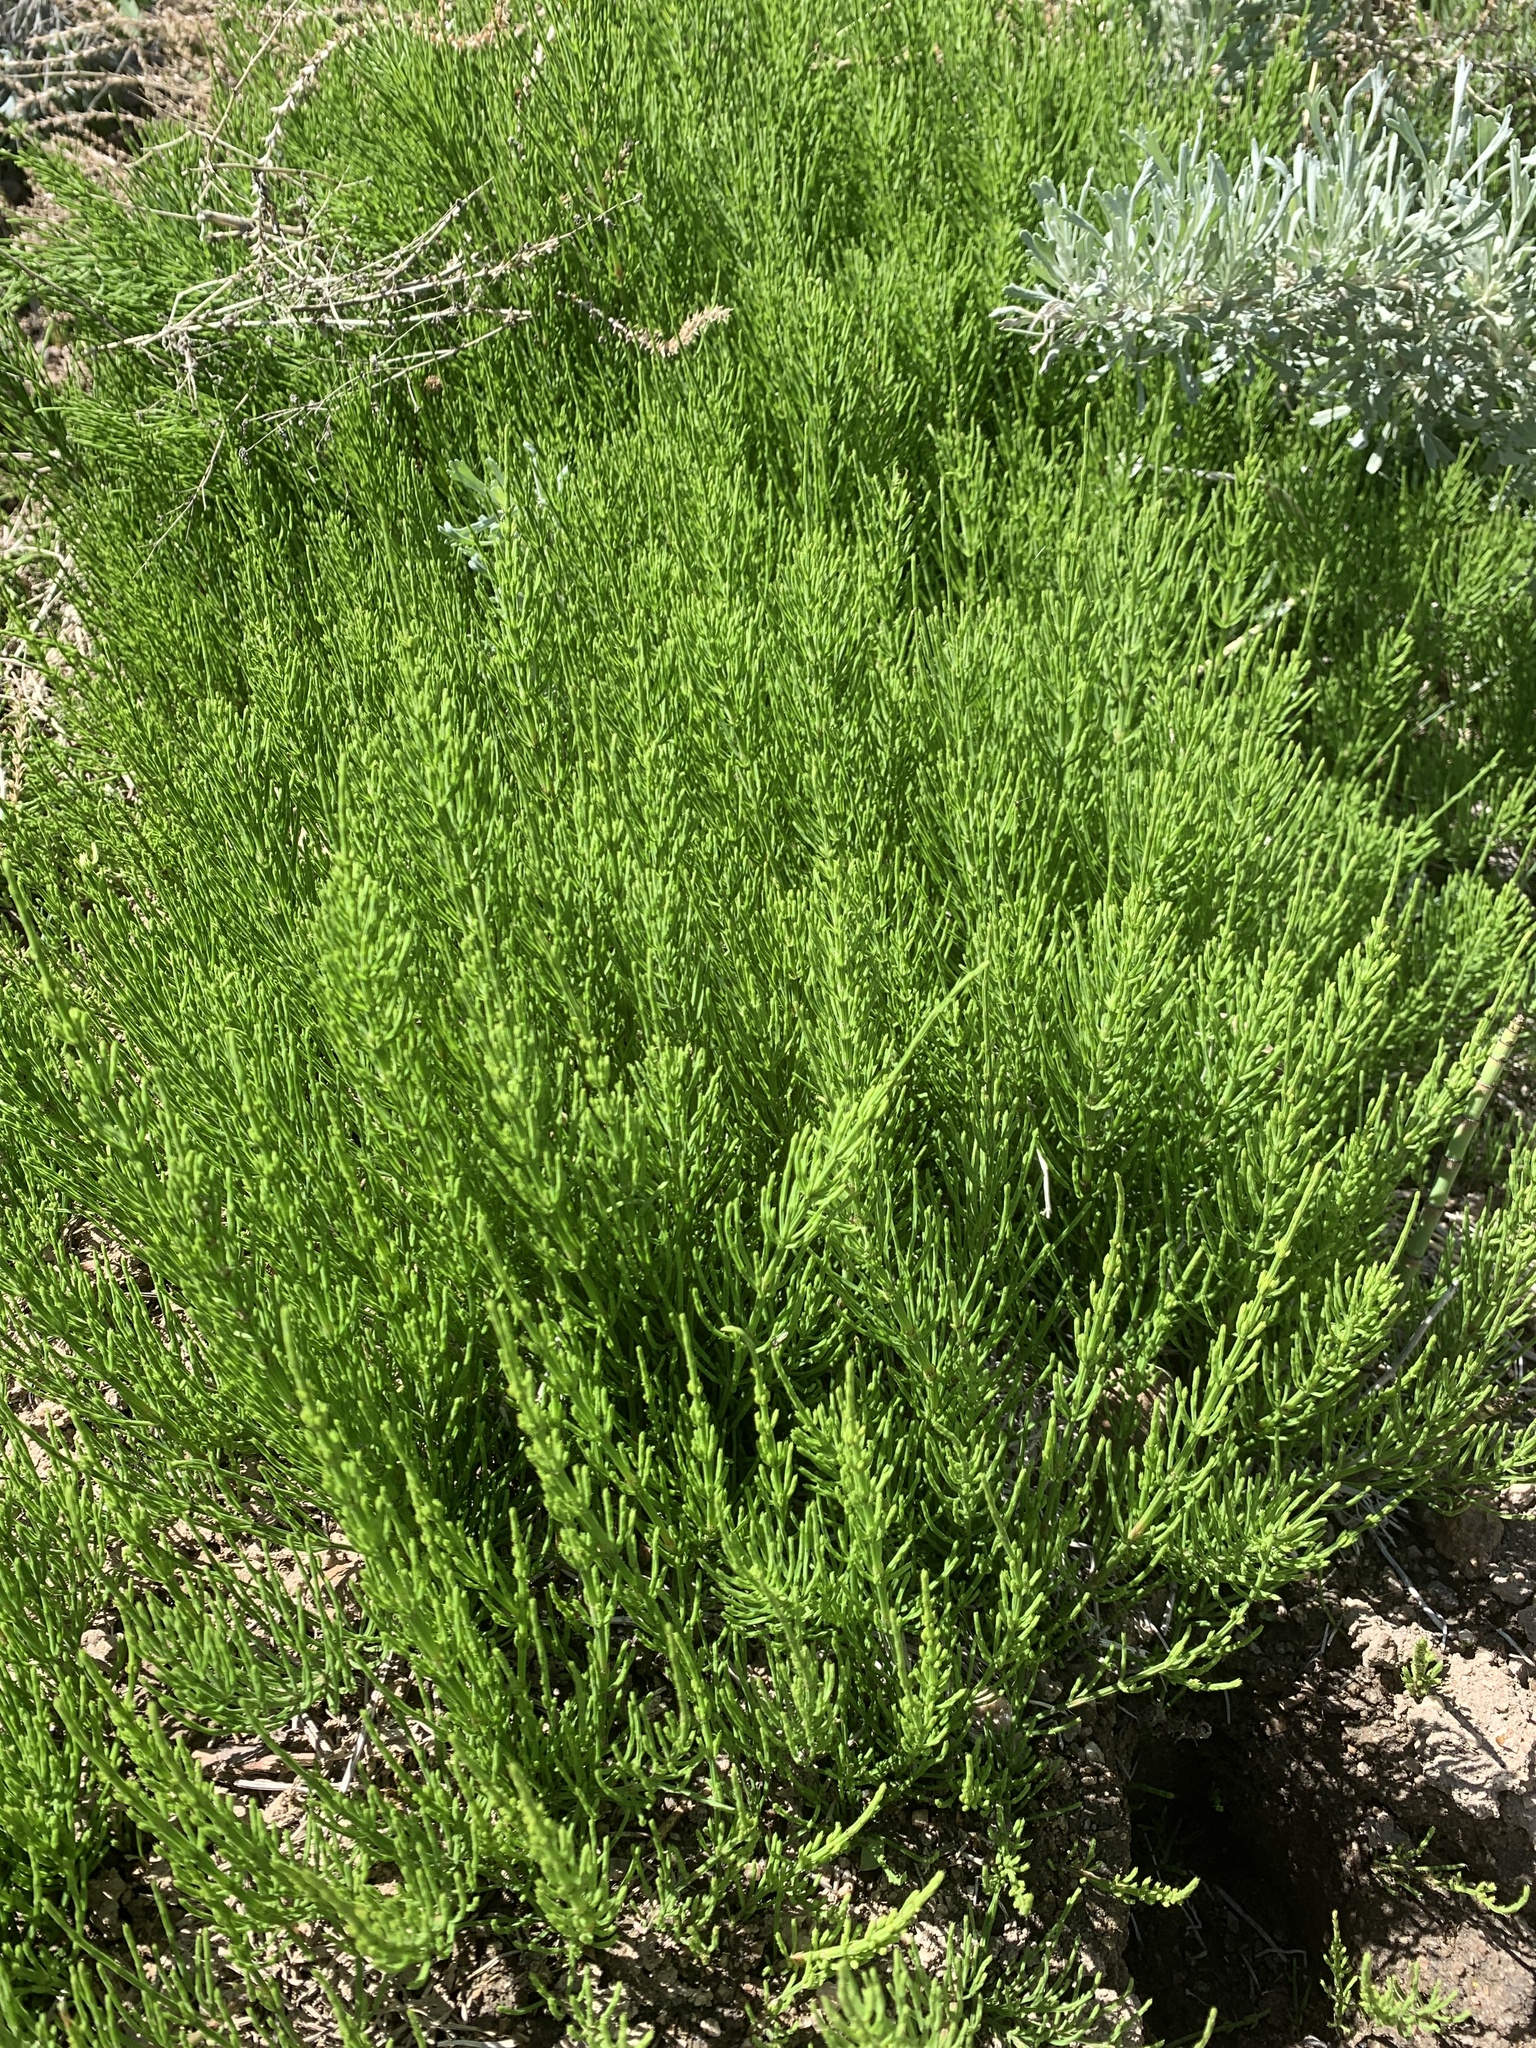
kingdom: Plantae
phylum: Tracheophyta
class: Polypodiopsida
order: Equisetales
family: Equisetaceae
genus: Equisetum
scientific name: Equisetum arvense
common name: Field horsetail
